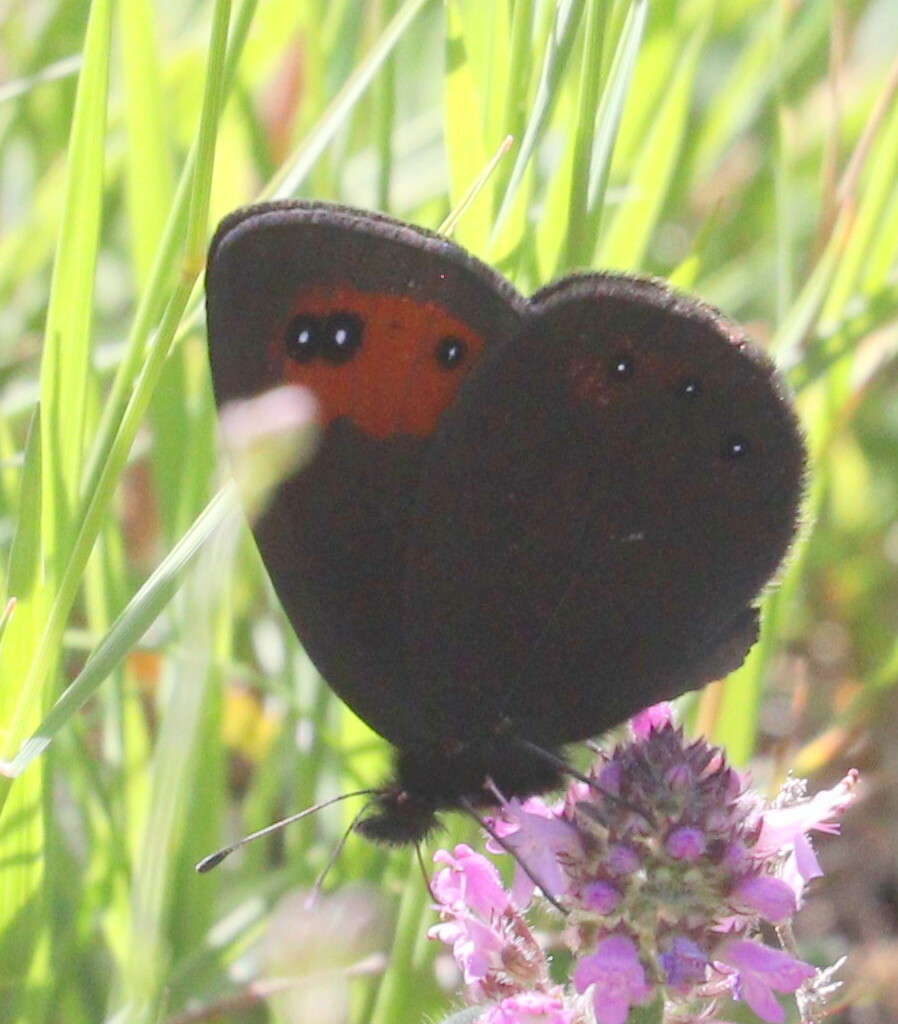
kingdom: Animalia
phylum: Arthropoda
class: Insecta
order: Lepidoptera
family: Nymphalidae
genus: Erebia
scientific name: Erebia meolans
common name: Piedmont ringlet
